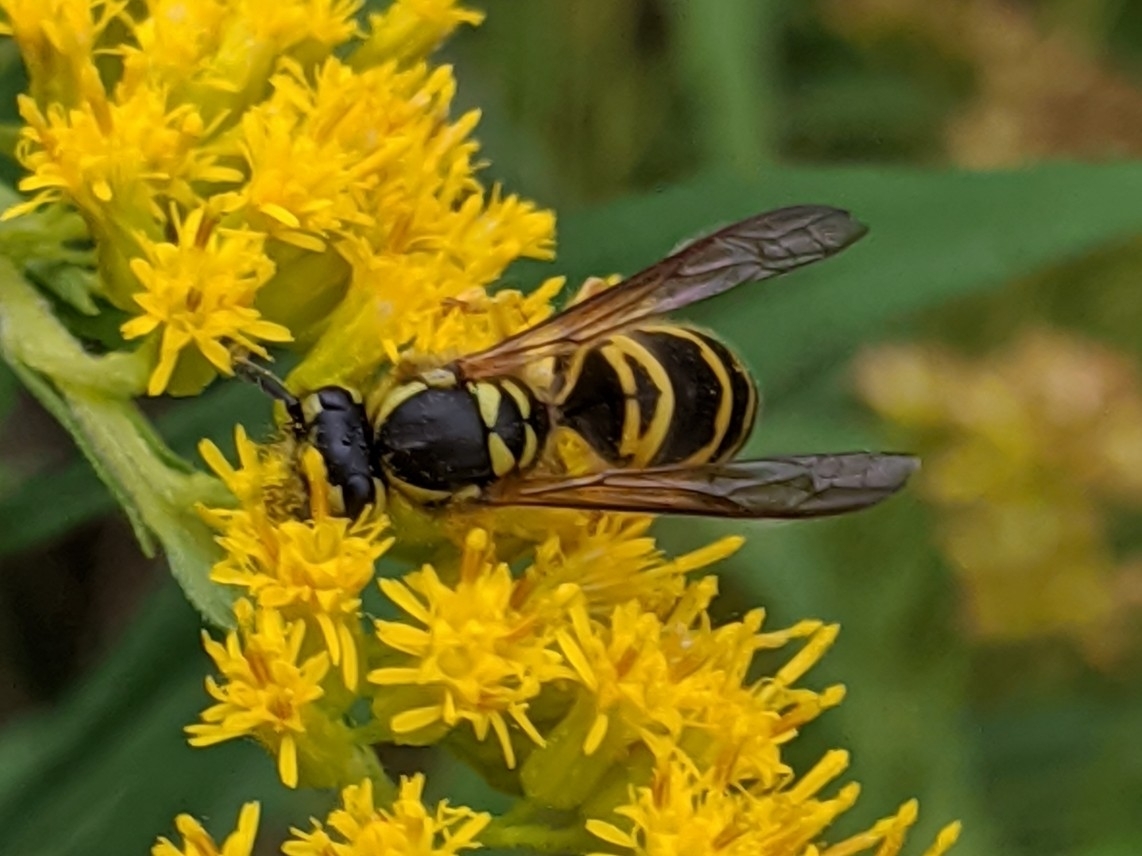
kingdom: Animalia
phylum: Arthropoda
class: Insecta
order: Hymenoptera
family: Vespidae
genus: Vespula
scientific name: Vespula maculifrons
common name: Eastern yellowjacket
